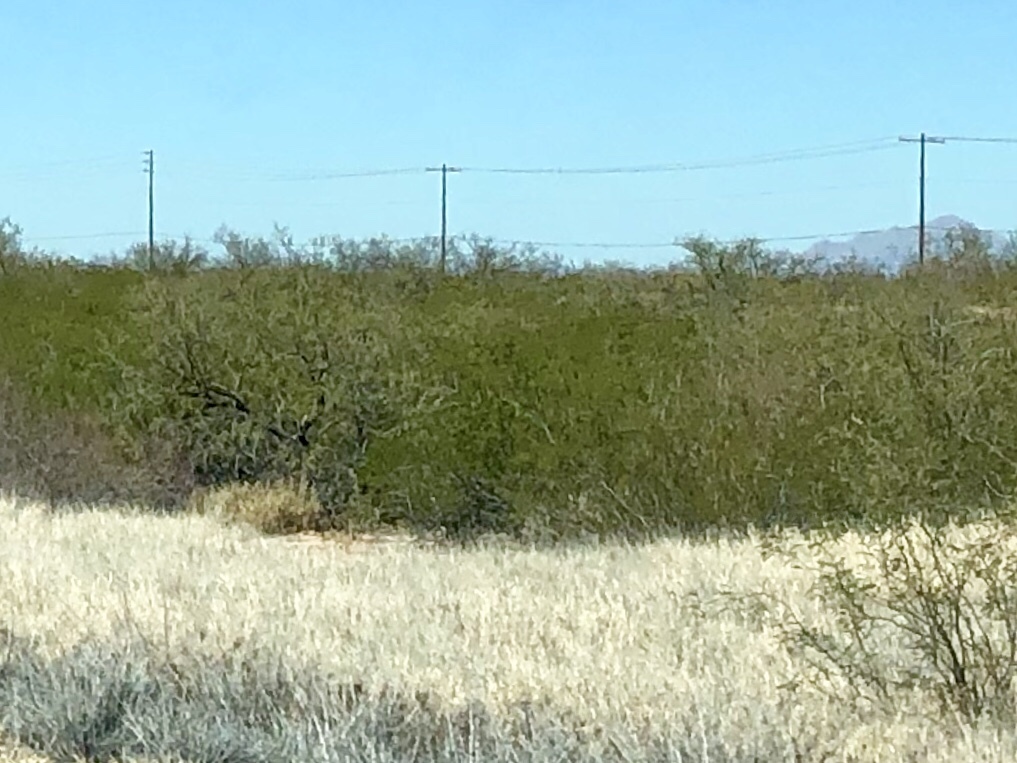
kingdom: Plantae
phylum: Tracheophyta
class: Magnoliopsida
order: Zygophyllales
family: Zygophyllaceae
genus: Larrea
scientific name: Larrea tridentata
